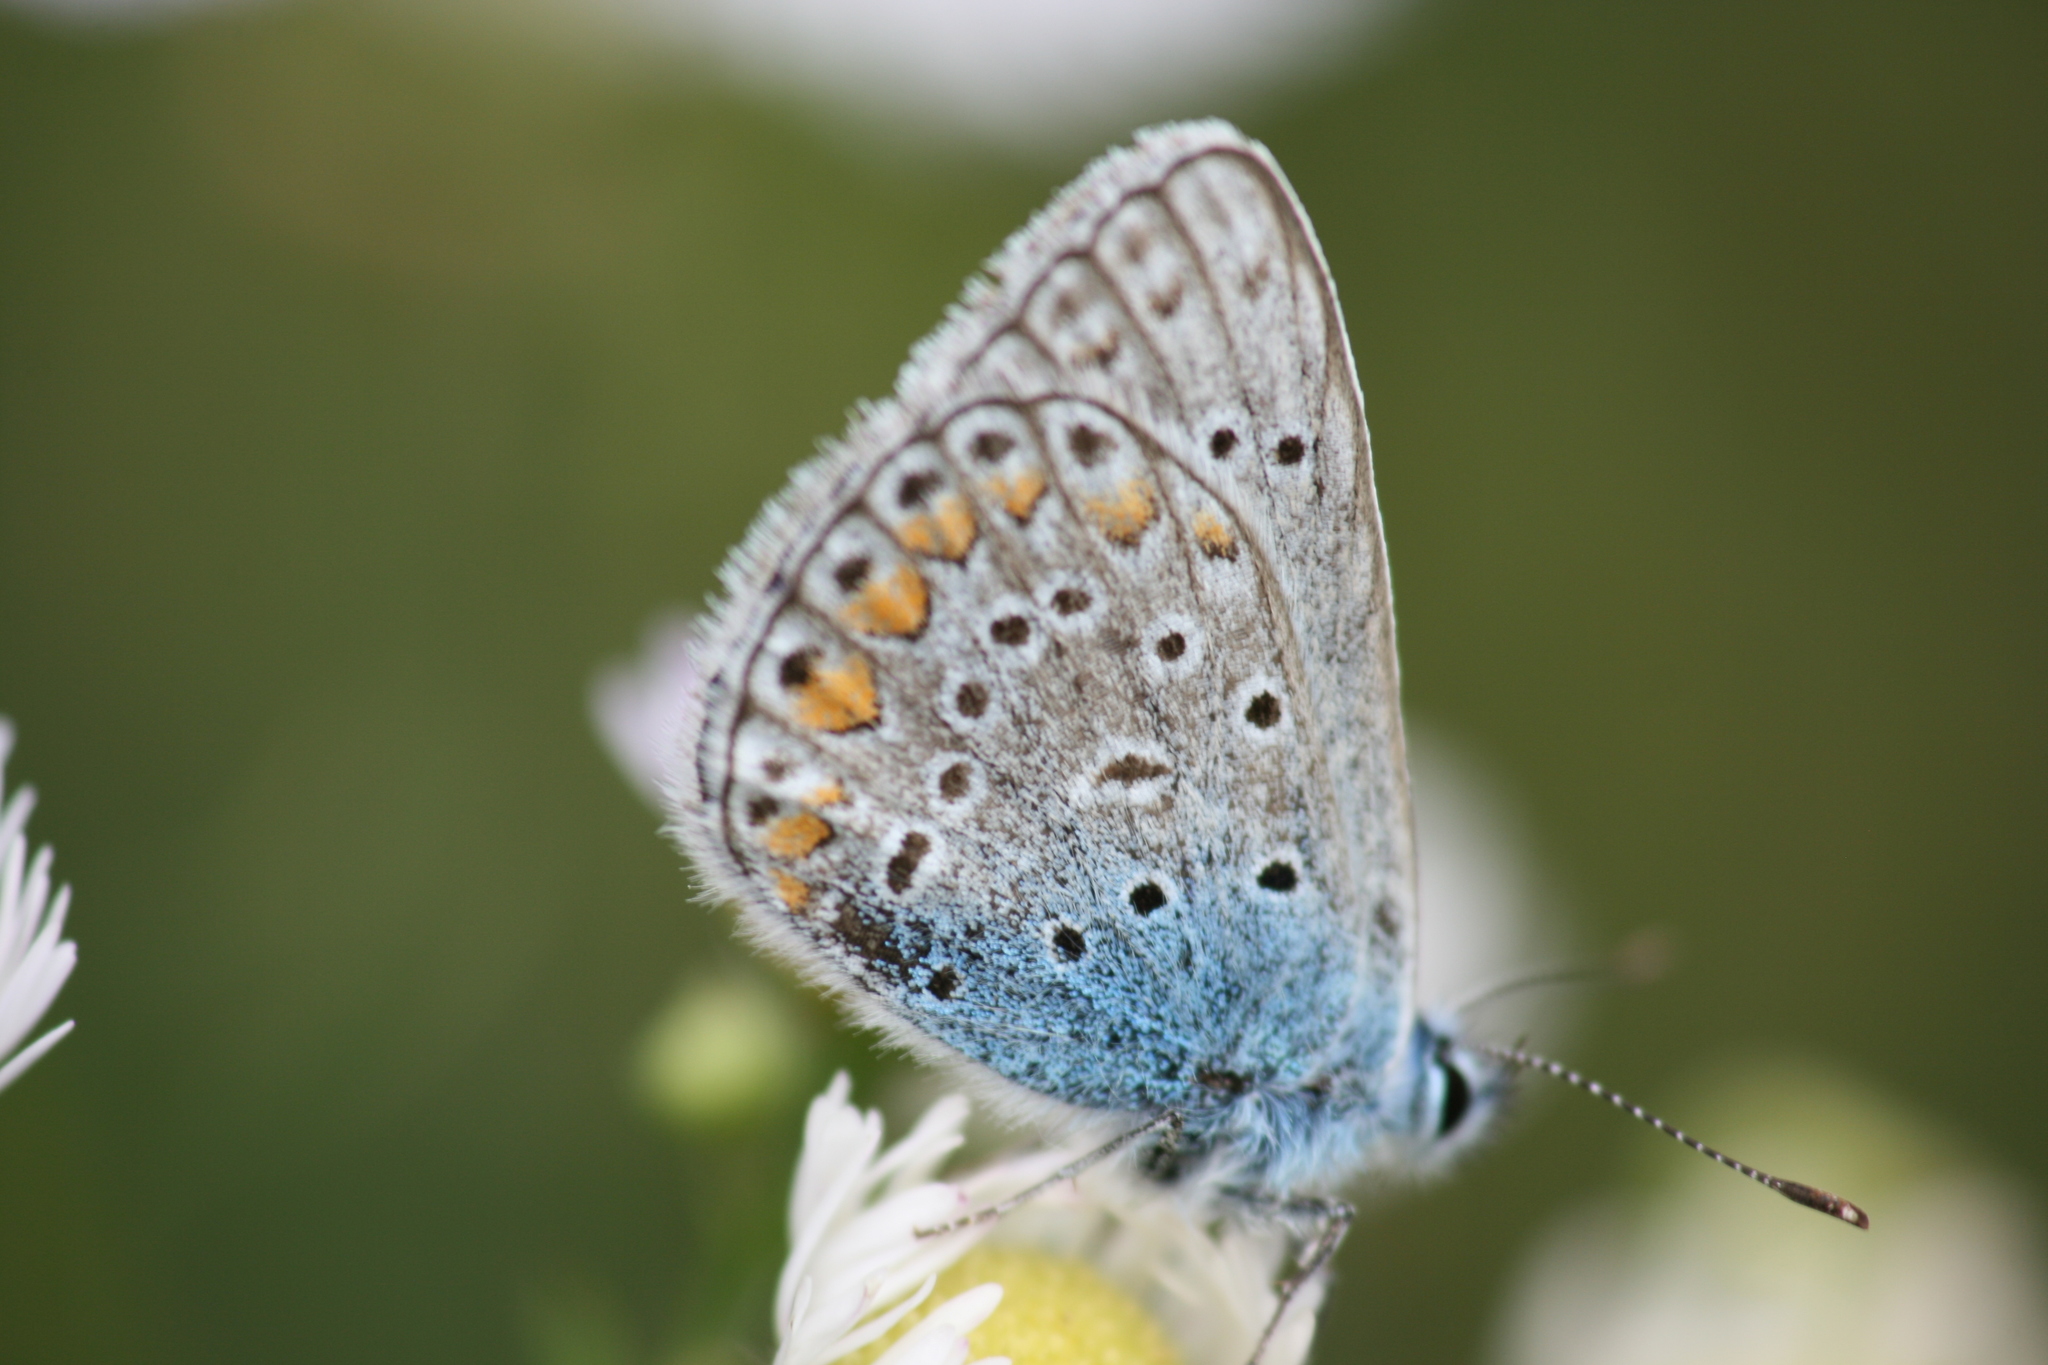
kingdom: Animalia
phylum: Arthropoda
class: Insecta
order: Lepidoptera
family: Lycaenidae
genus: Polyommatus
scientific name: Polyommatus icarus
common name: Common blue
